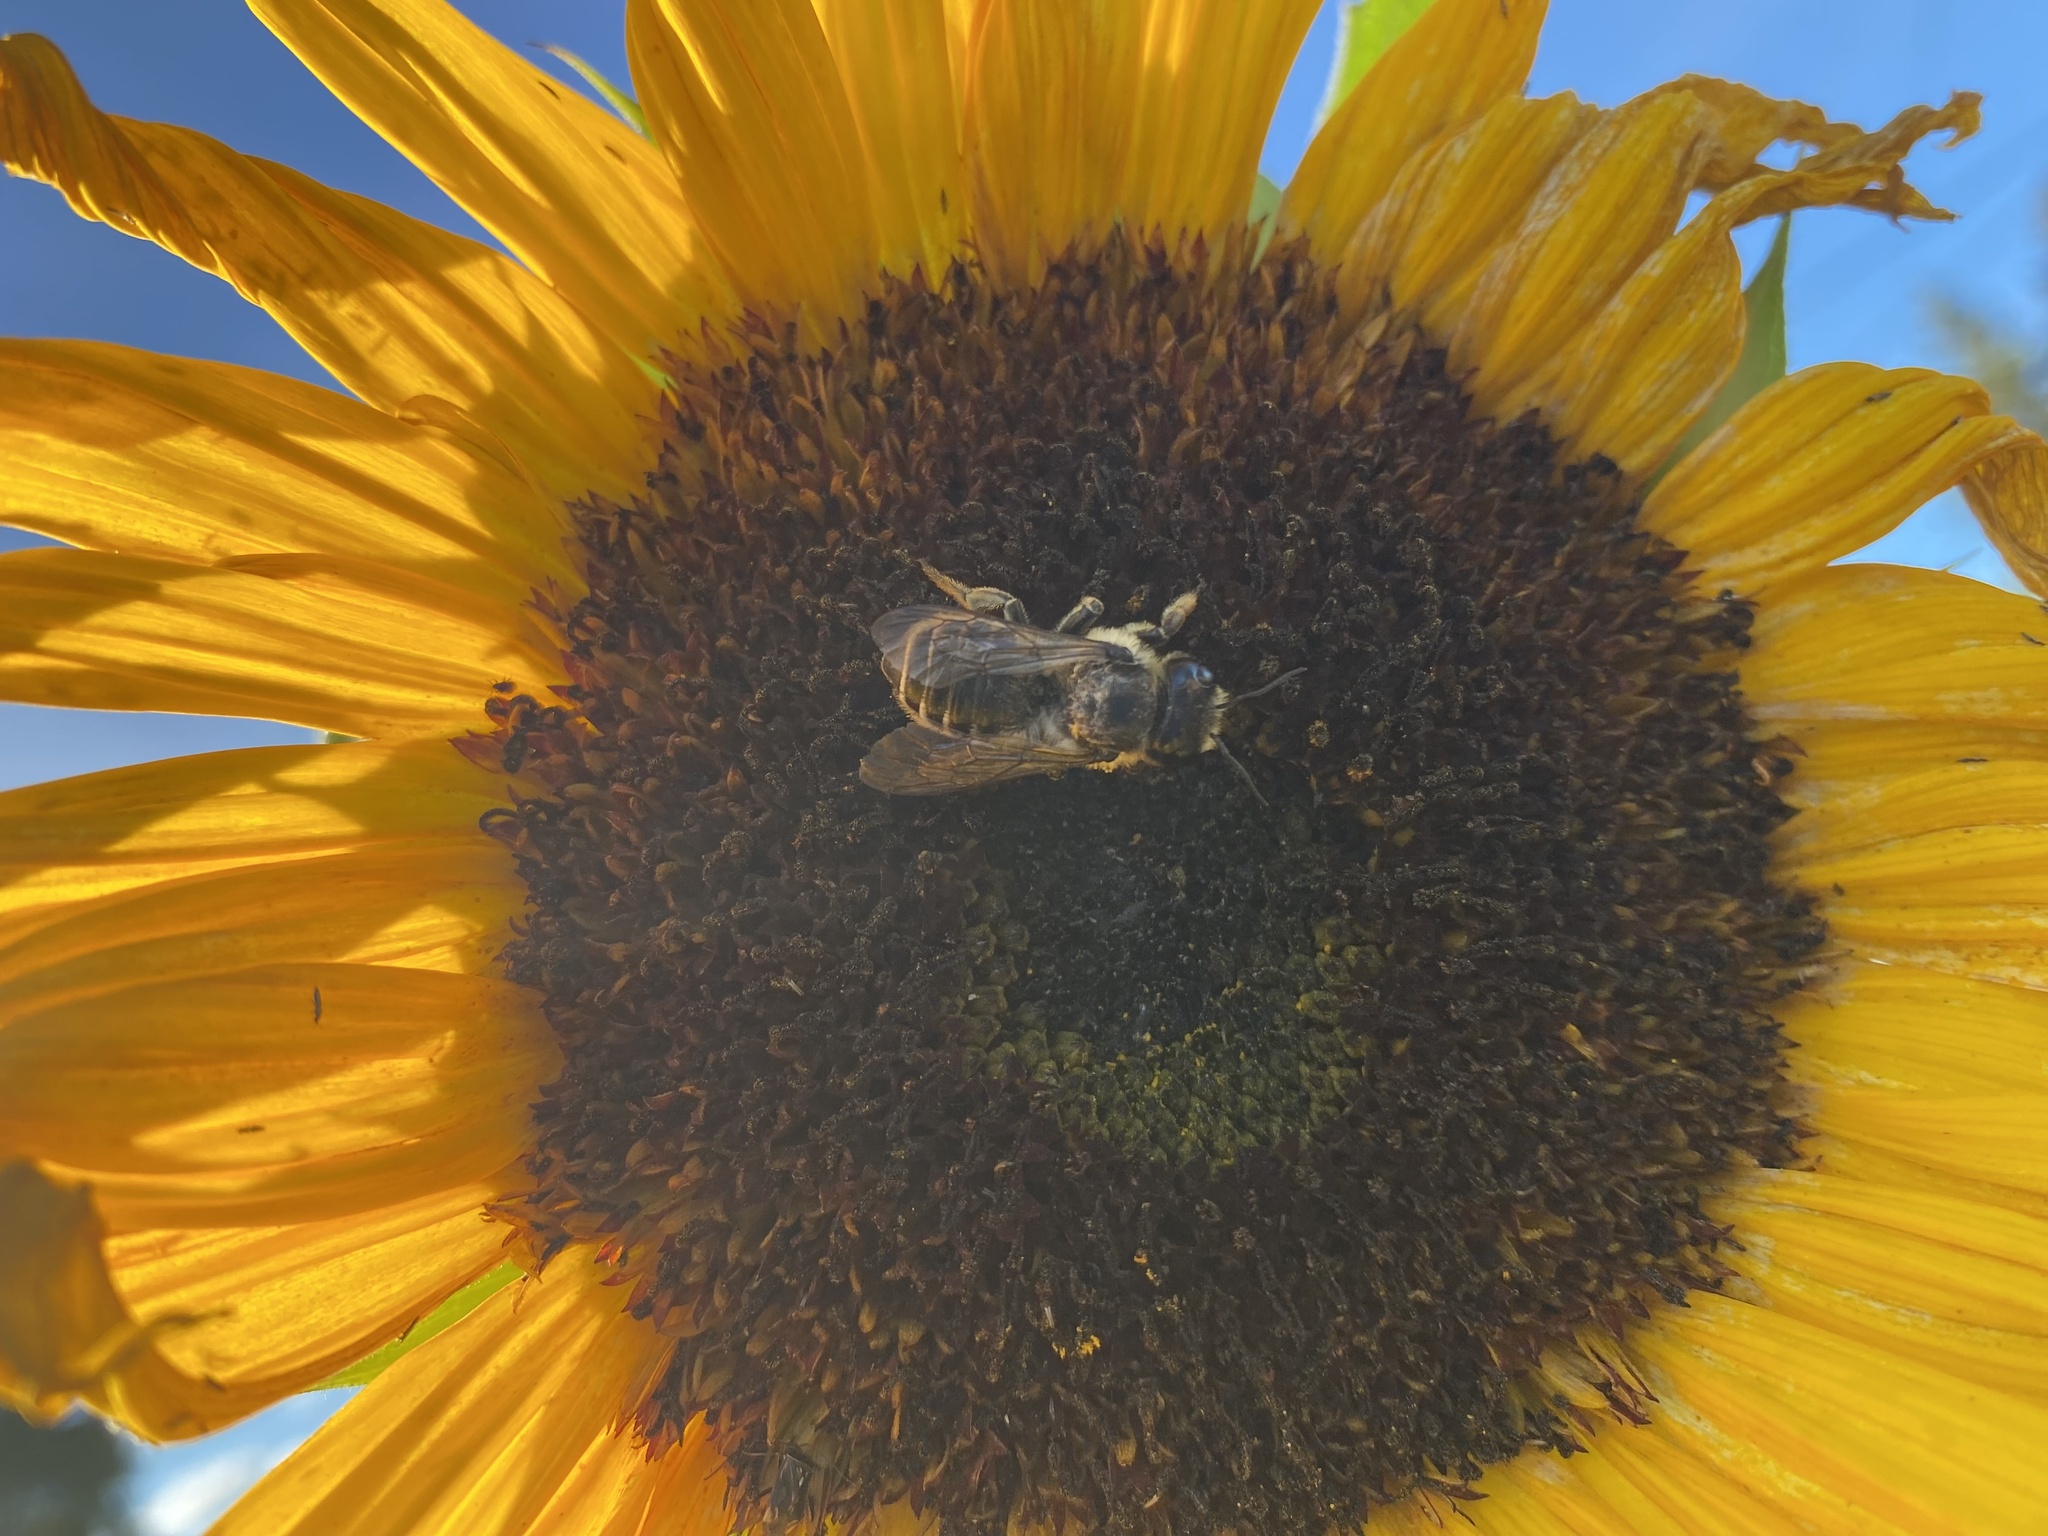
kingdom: Animalia
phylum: Arthropoda
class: Insecta
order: Hymenoptera
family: Megachilidae
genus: Megachile
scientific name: Megachile inermis
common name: Unarmed leafcutter bee
